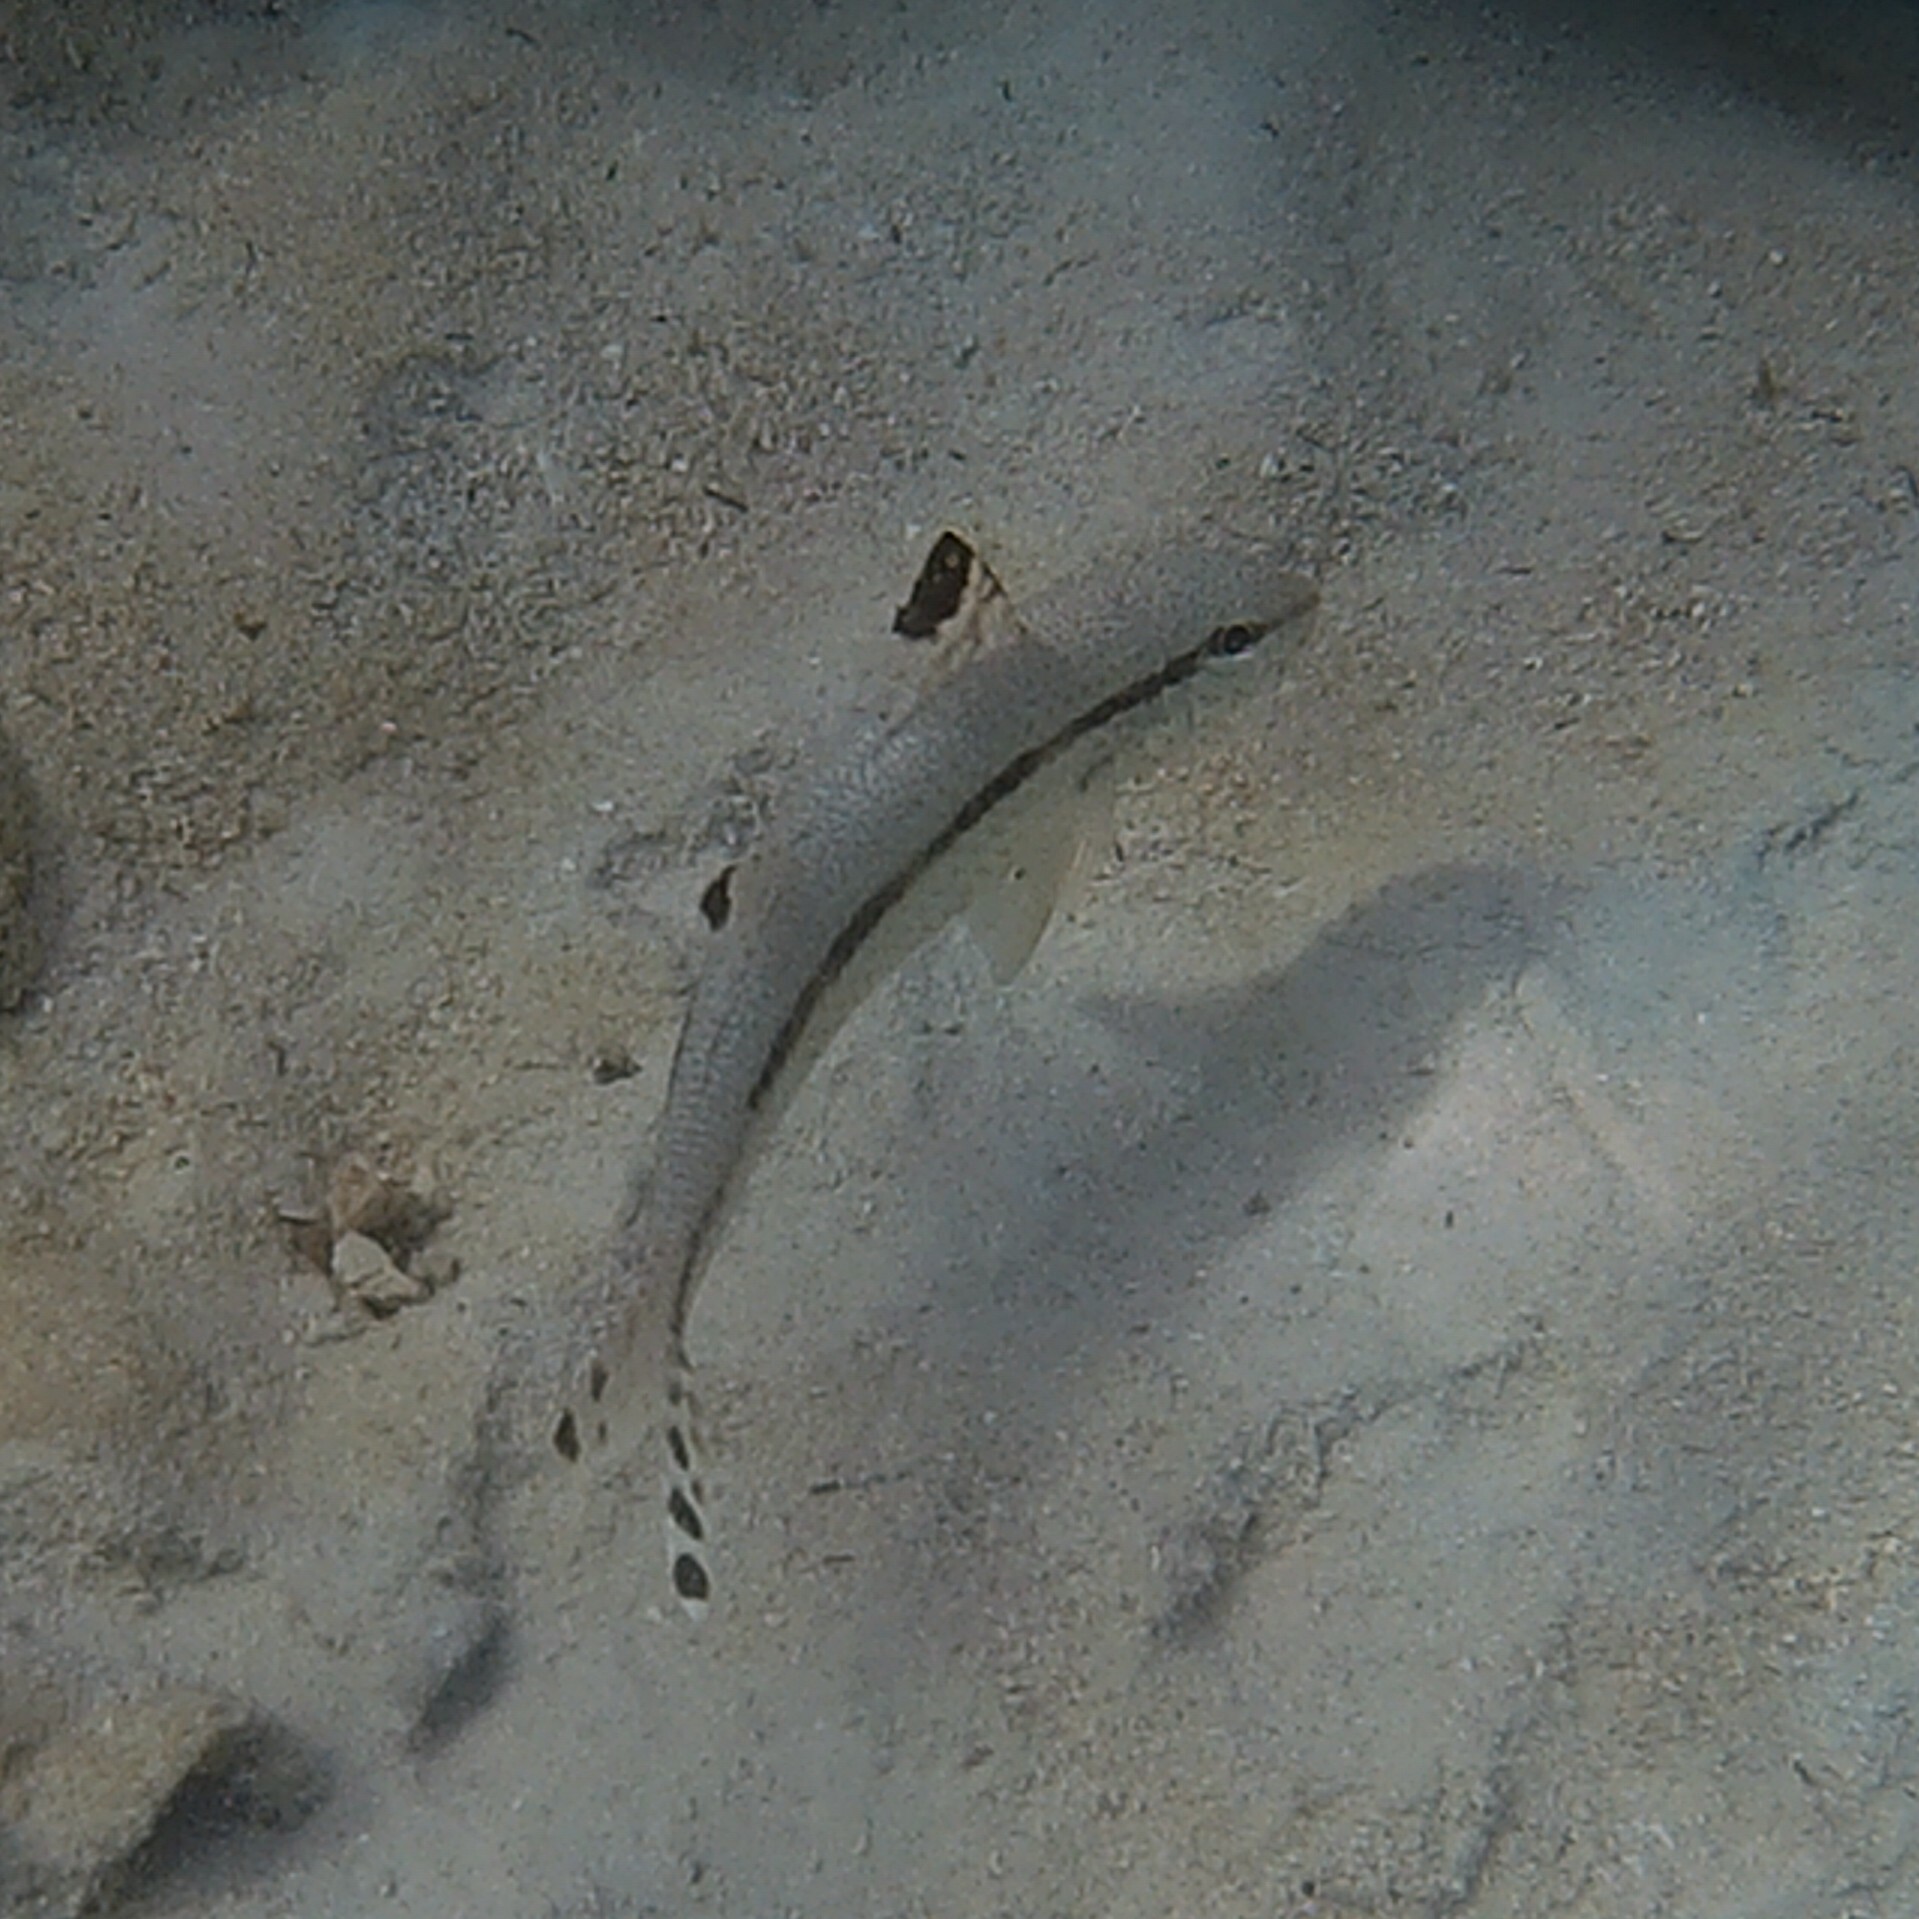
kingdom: Animalia
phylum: Chordata
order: Perciformes
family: Mullidae
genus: Upeneus
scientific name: Upeneus tragula
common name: Freckled goatfish
